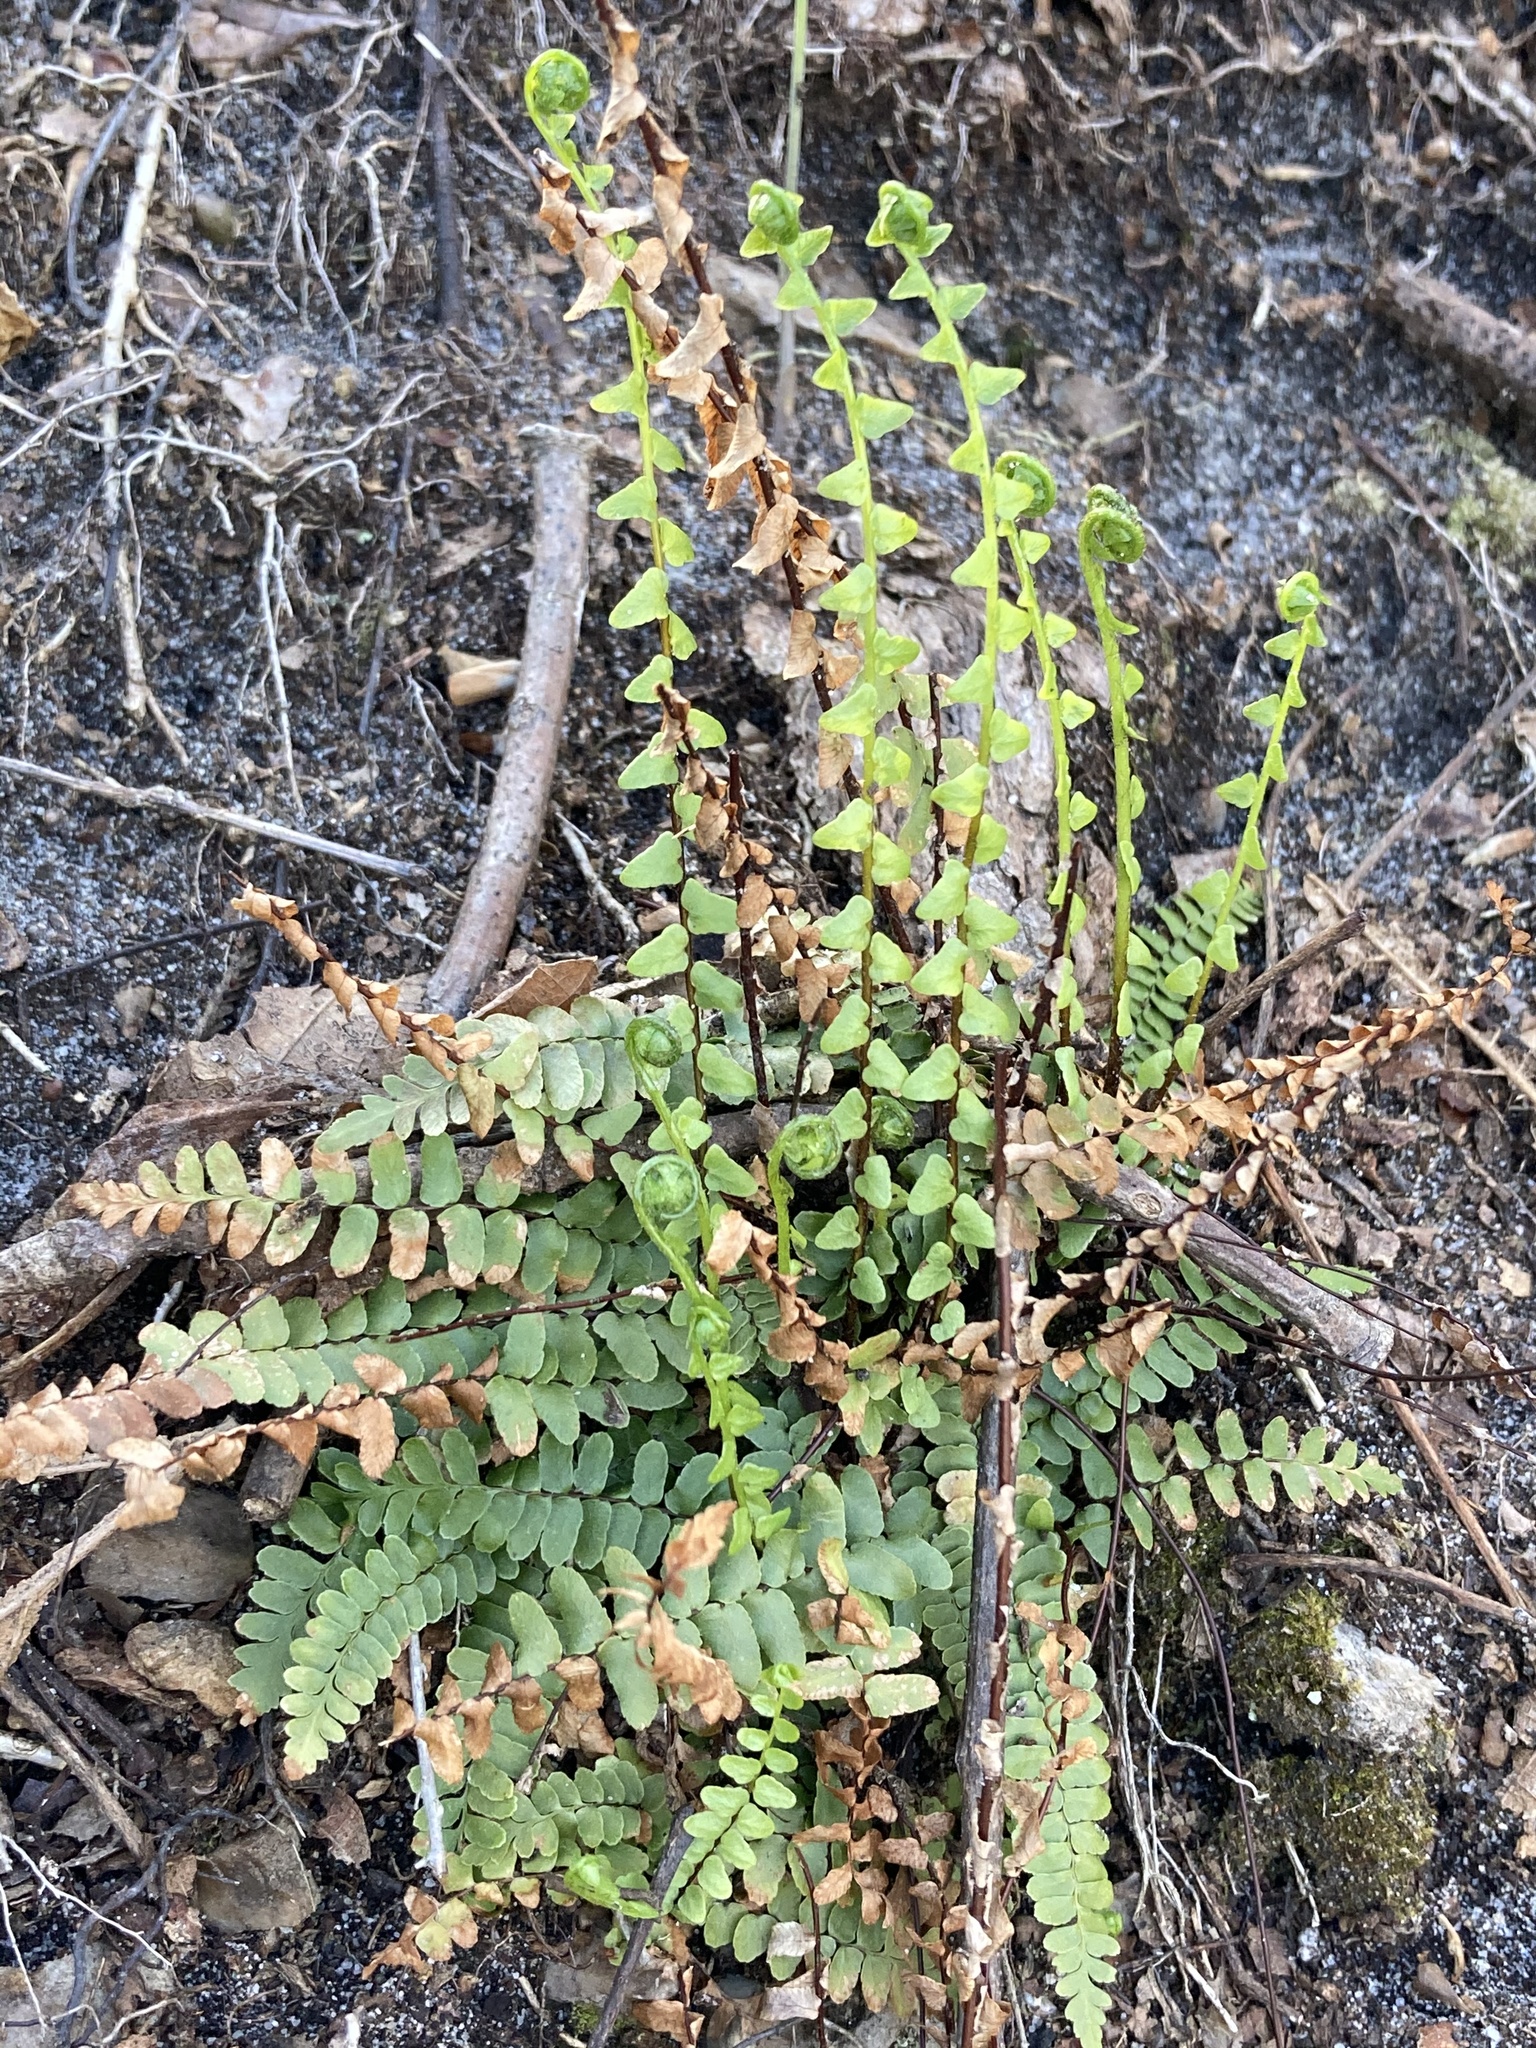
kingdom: Plantae
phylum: Tracheophyta
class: Polypodiopsida
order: Polypodiales
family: Aspleniaceae
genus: Asplenium
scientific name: Asplenium platyneuron
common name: Ebony spleenwort
